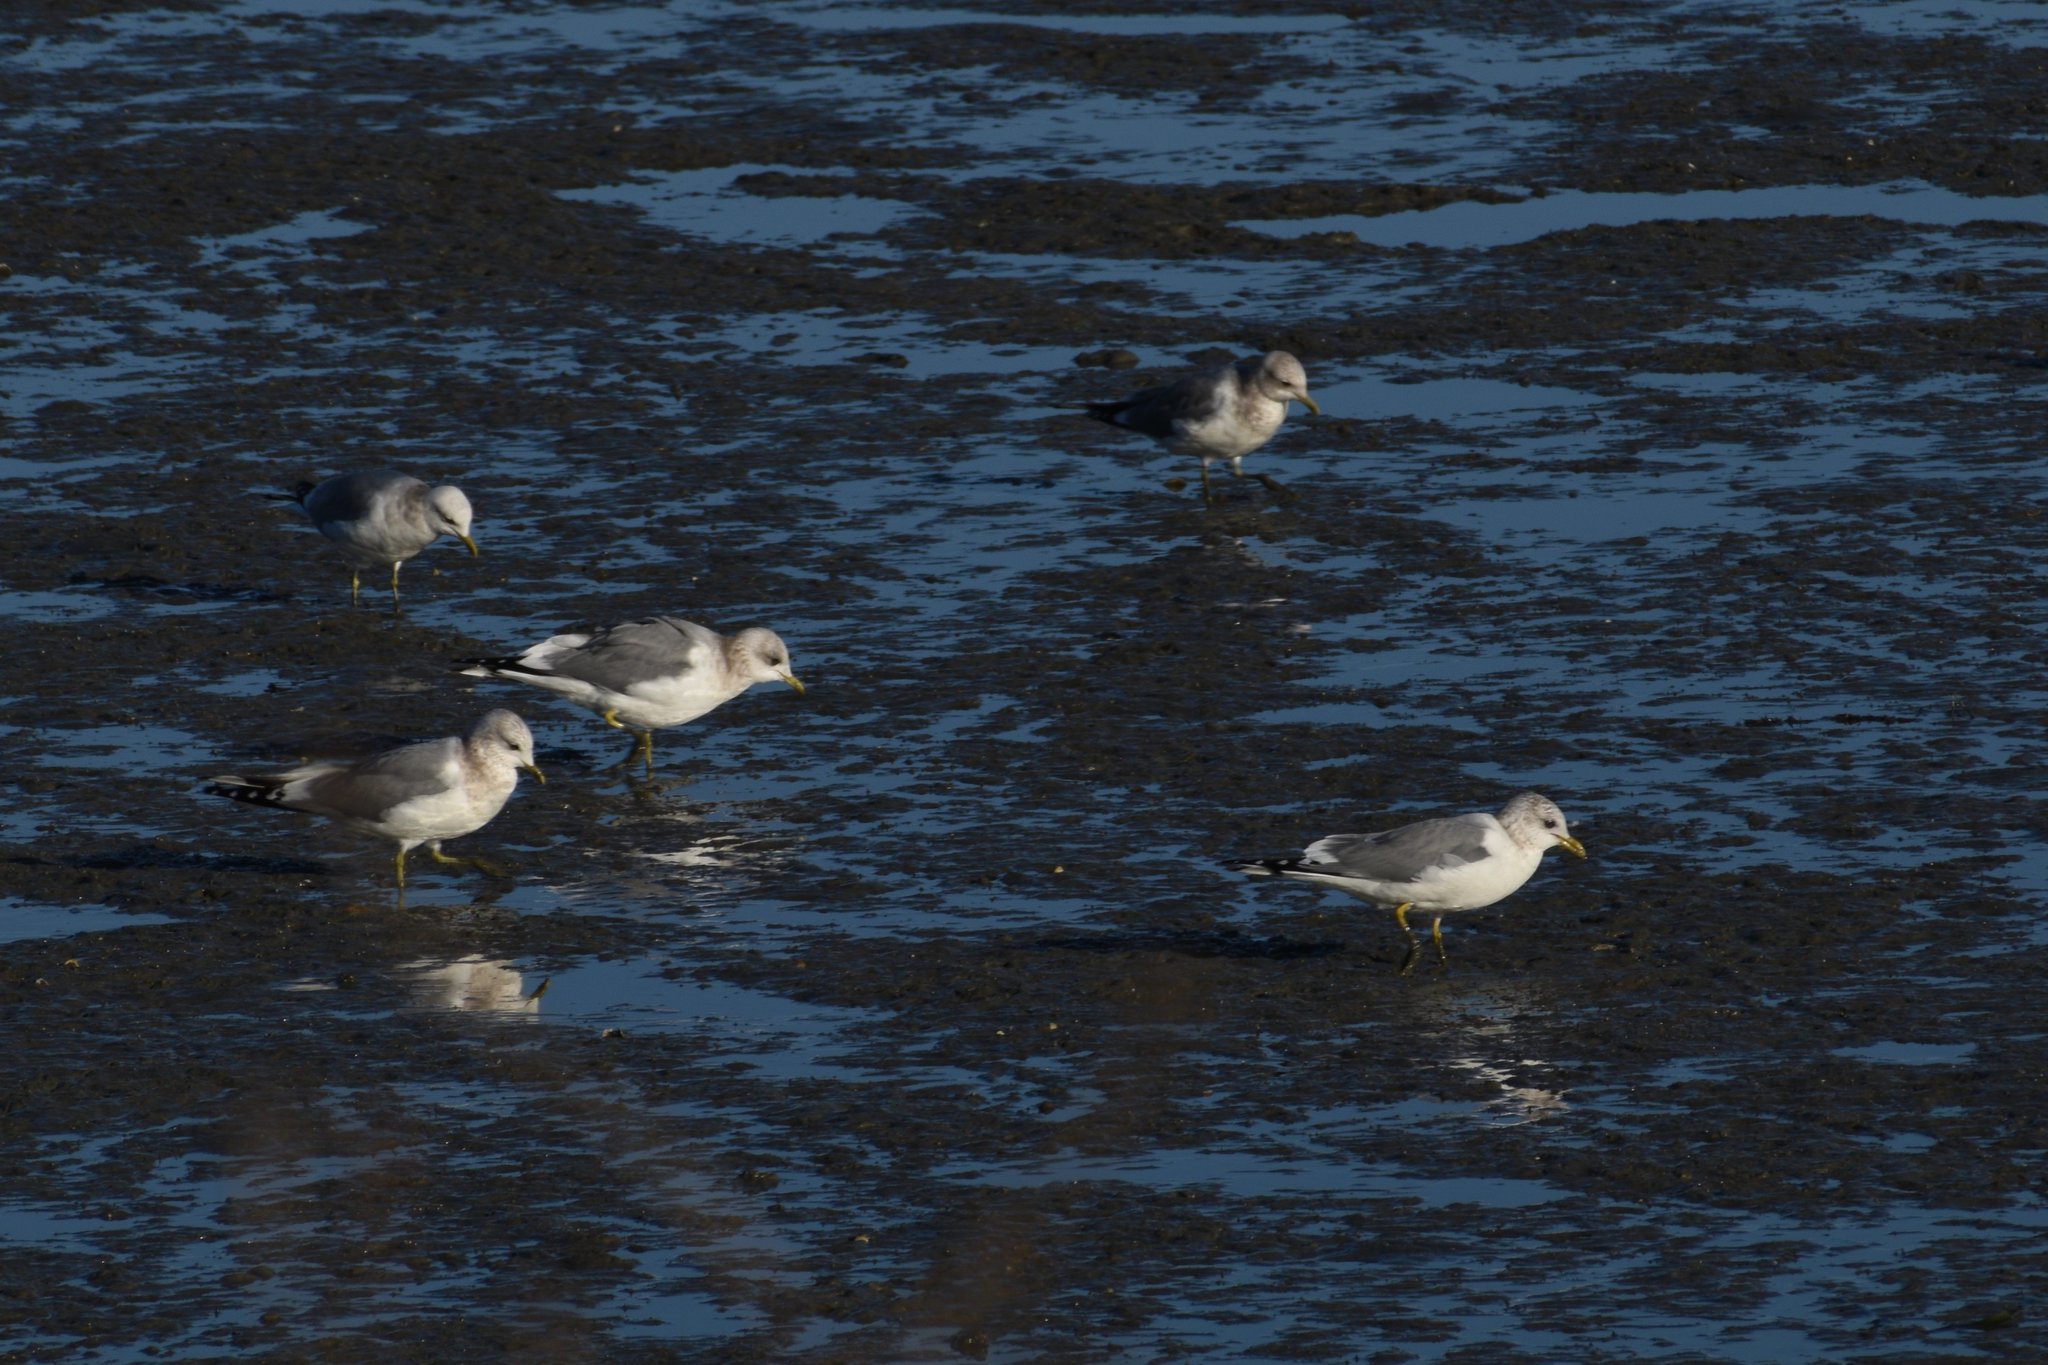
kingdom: Animalia
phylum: Chordata
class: Aves
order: Charadriiformes
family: Laridae
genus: Larus
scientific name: Larus brachyrhynchus
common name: Short-billed gull
